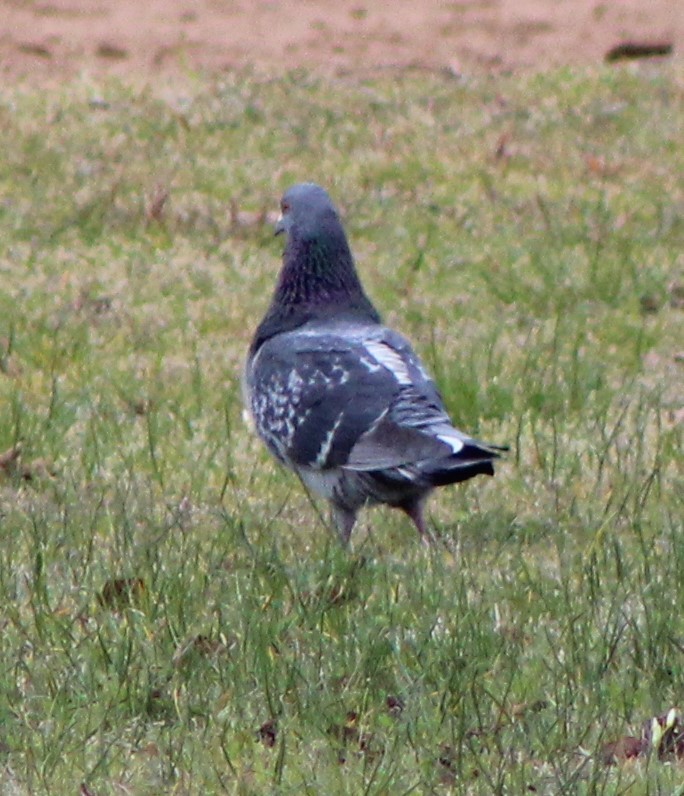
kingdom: Animalia
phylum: Chordata
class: Aves
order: Columbiformes
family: Columbidae
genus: Columba
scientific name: Columba livia
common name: Rock pigeon
